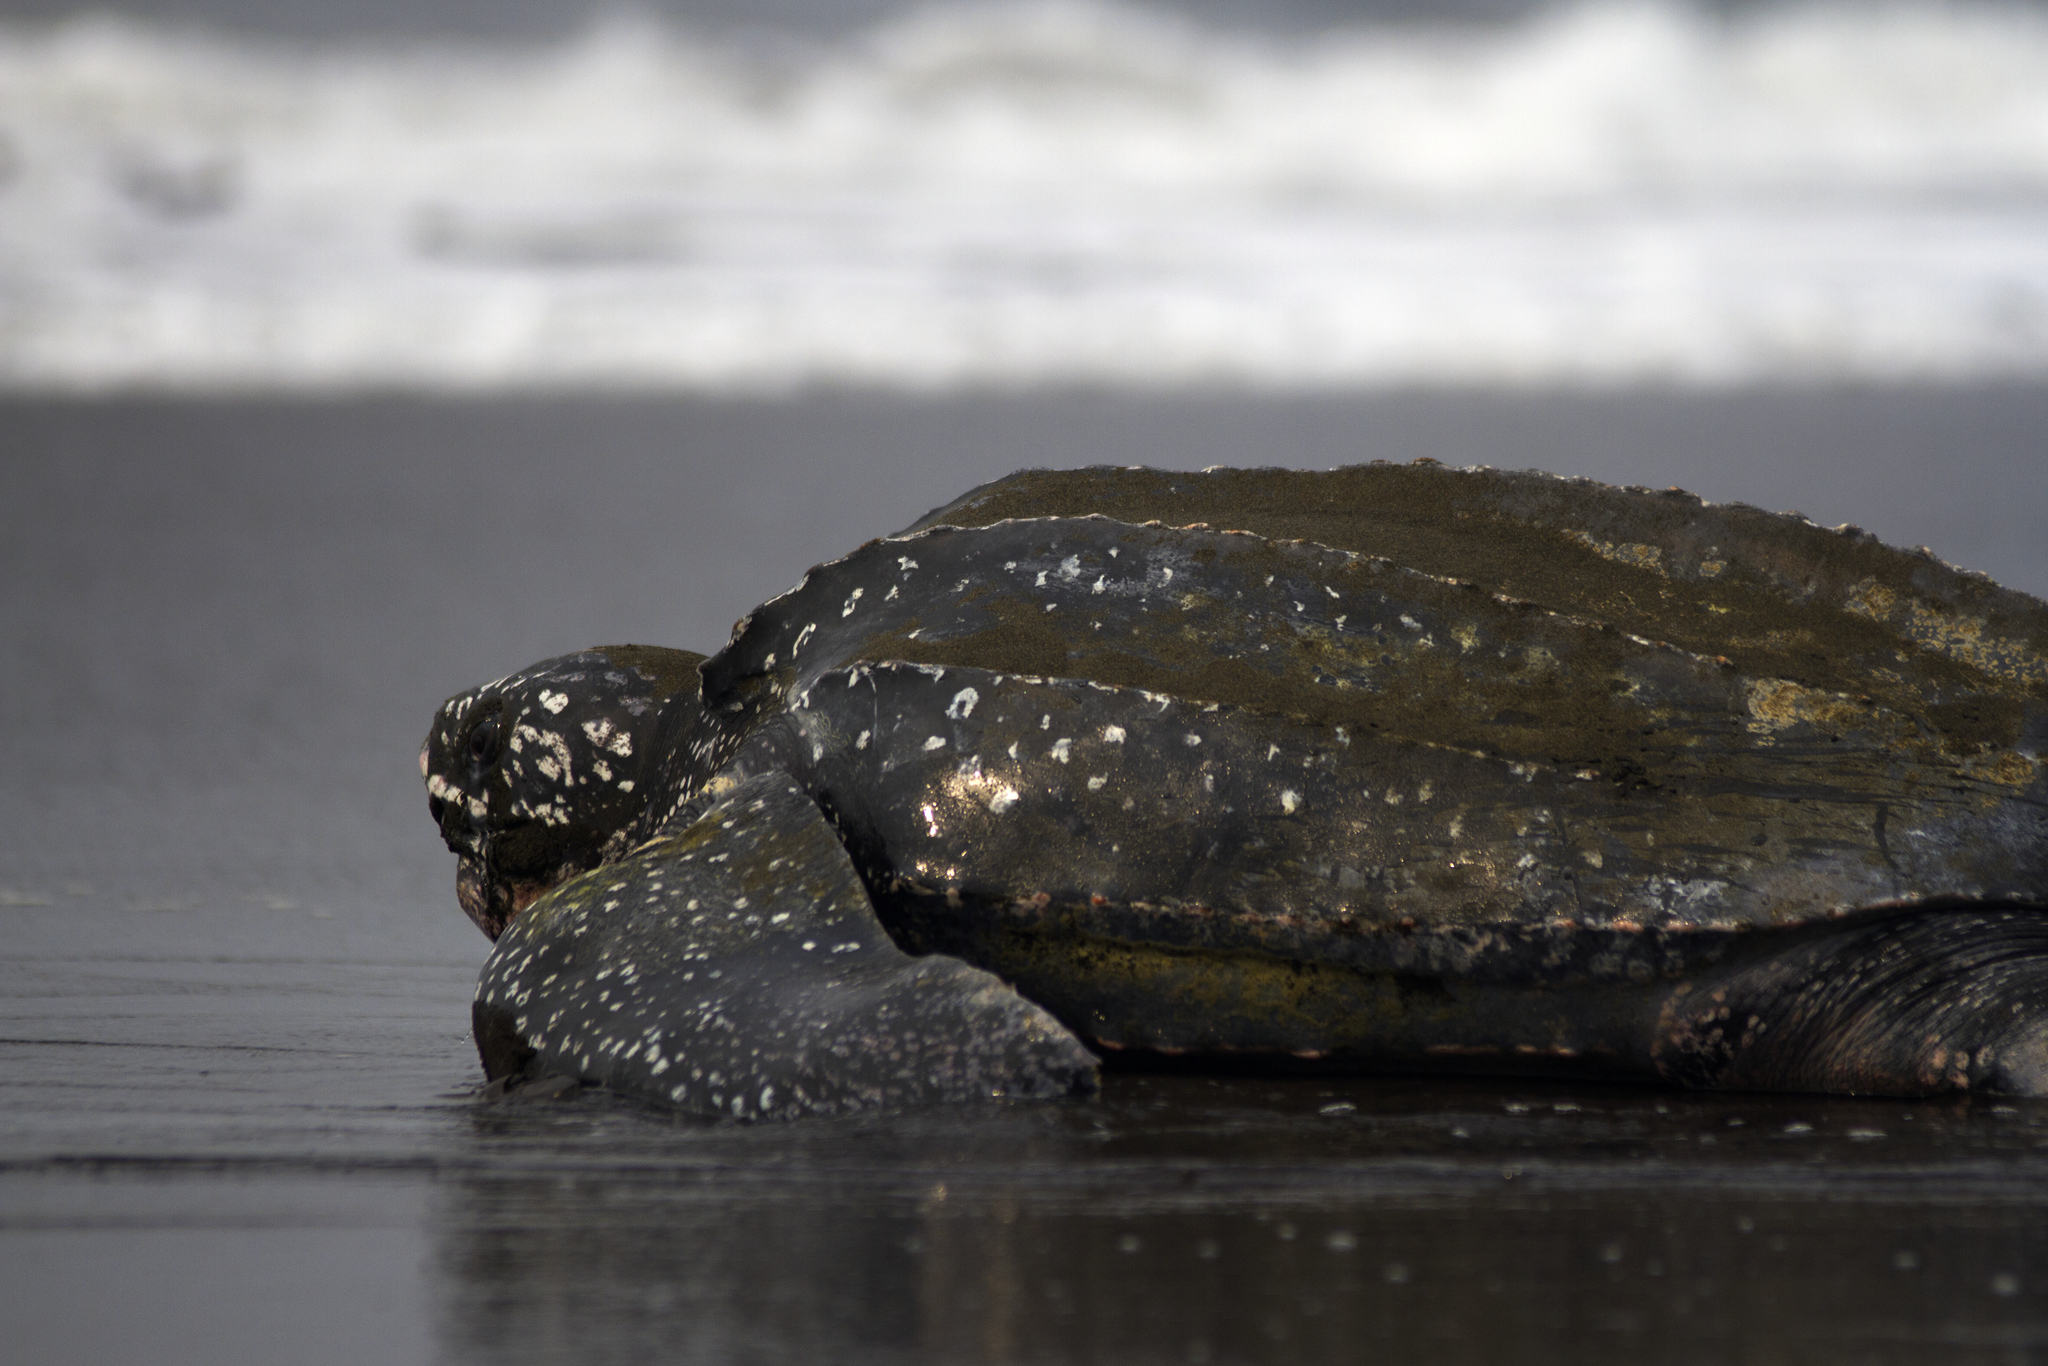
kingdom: Animalia
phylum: Chordata
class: Testudines
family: Dermochelyidae
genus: Dermochelys
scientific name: Dermochelys coriacea
